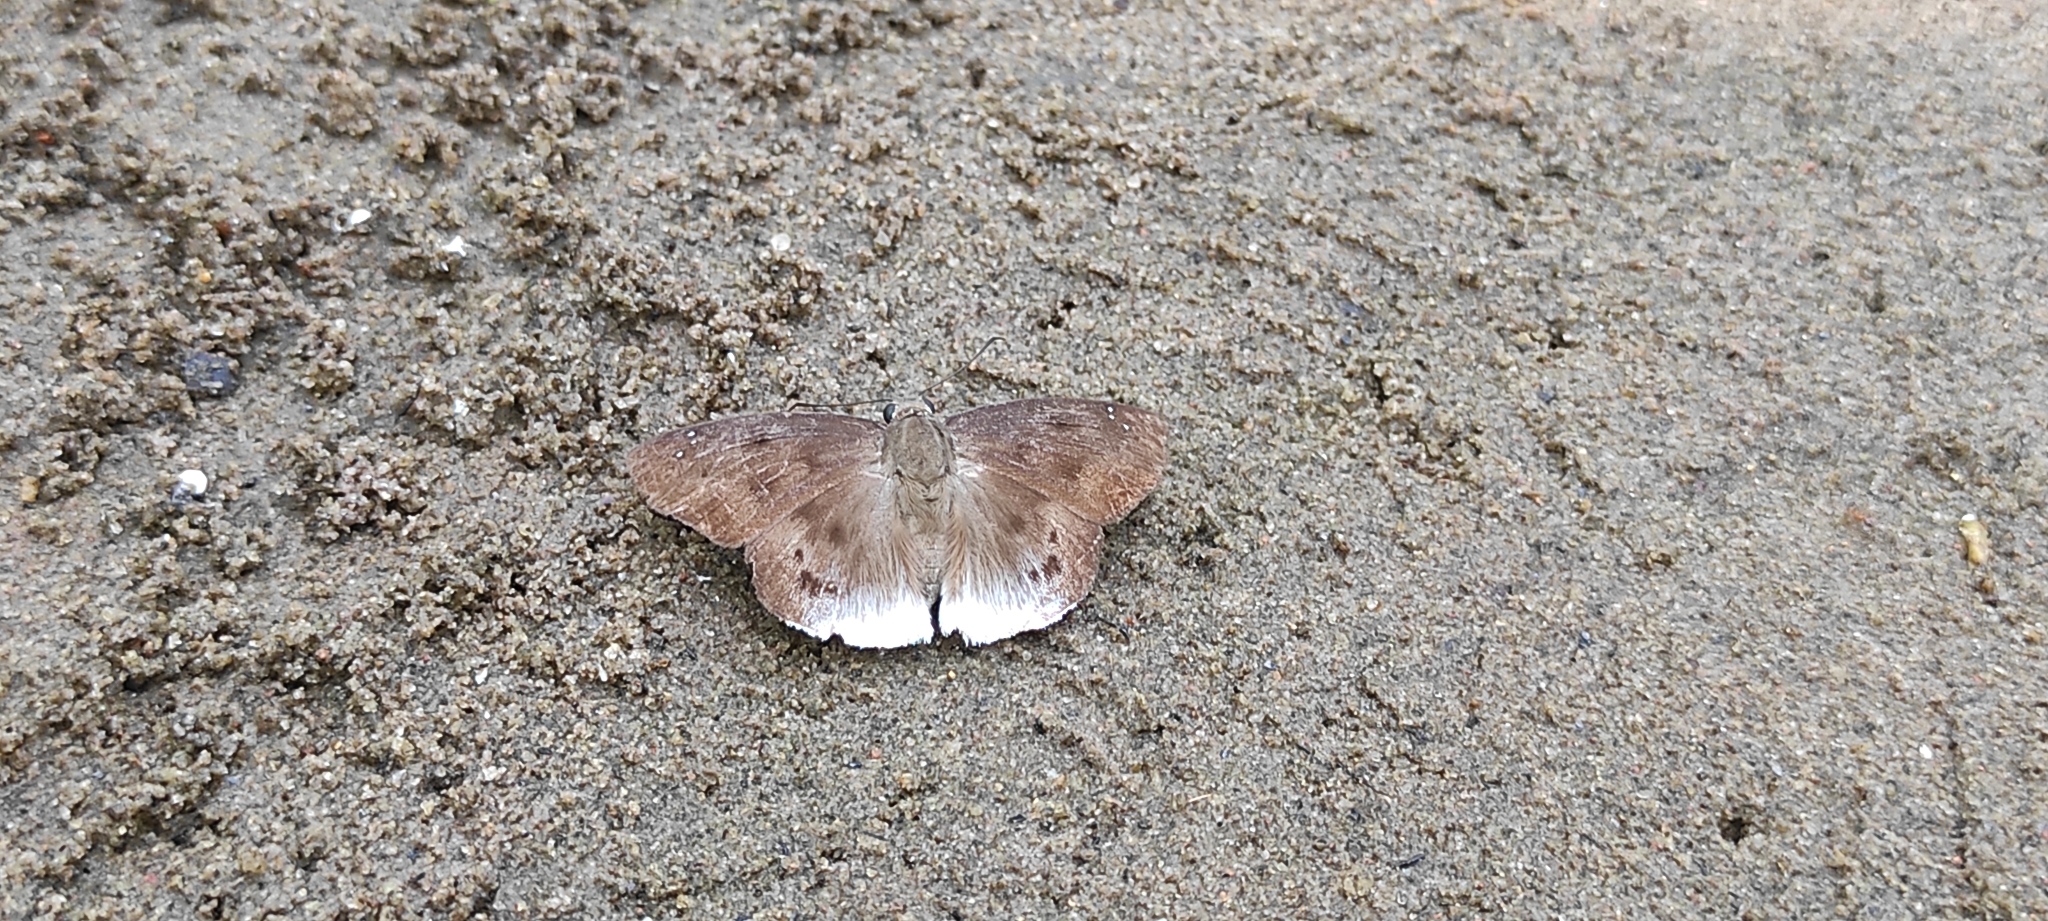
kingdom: Animalia
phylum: Arthropoda
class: Insecta
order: Lepidoptera
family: Hesperiidae
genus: Tagiades
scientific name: Tagiades gana
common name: Suffused snow flat
